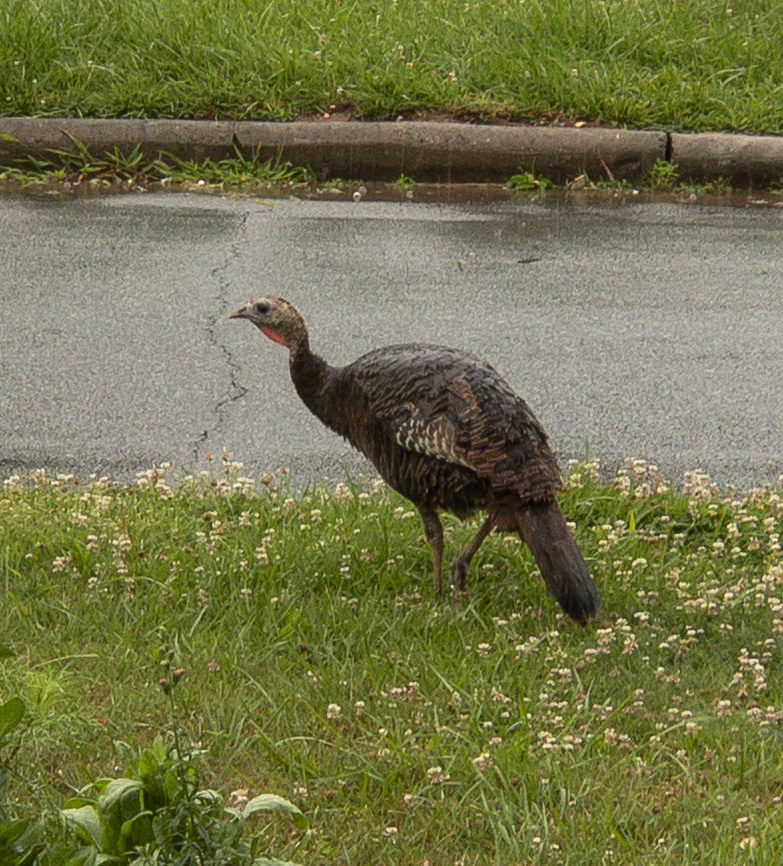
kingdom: Animalia
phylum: Chordata
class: Aves
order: Galliformes
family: Phasianidae
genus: Meleagris
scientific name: Meleagris gallopavo
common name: Wild turkey
